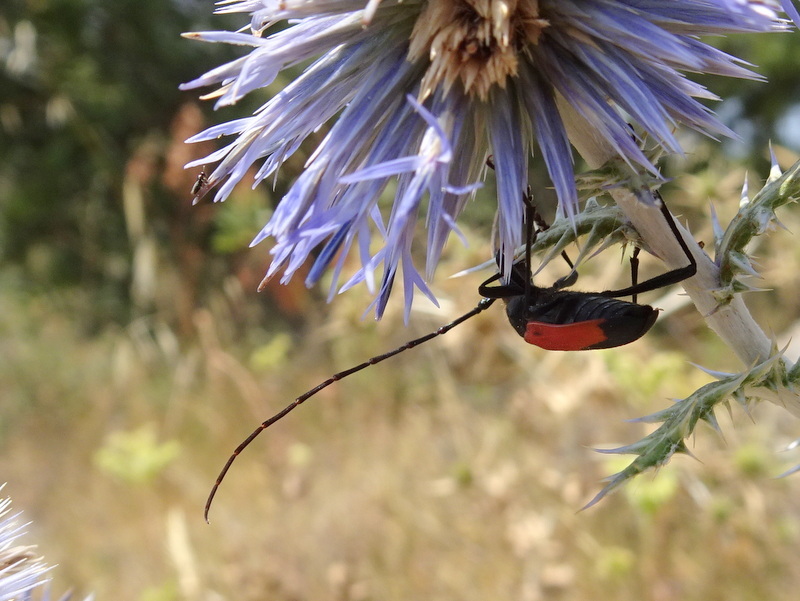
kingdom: Animalia
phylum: Arthropoda
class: Insecta
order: Coleoptera
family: Cerambycidae
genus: Purpuricenus
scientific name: Purpuricenus budensis
